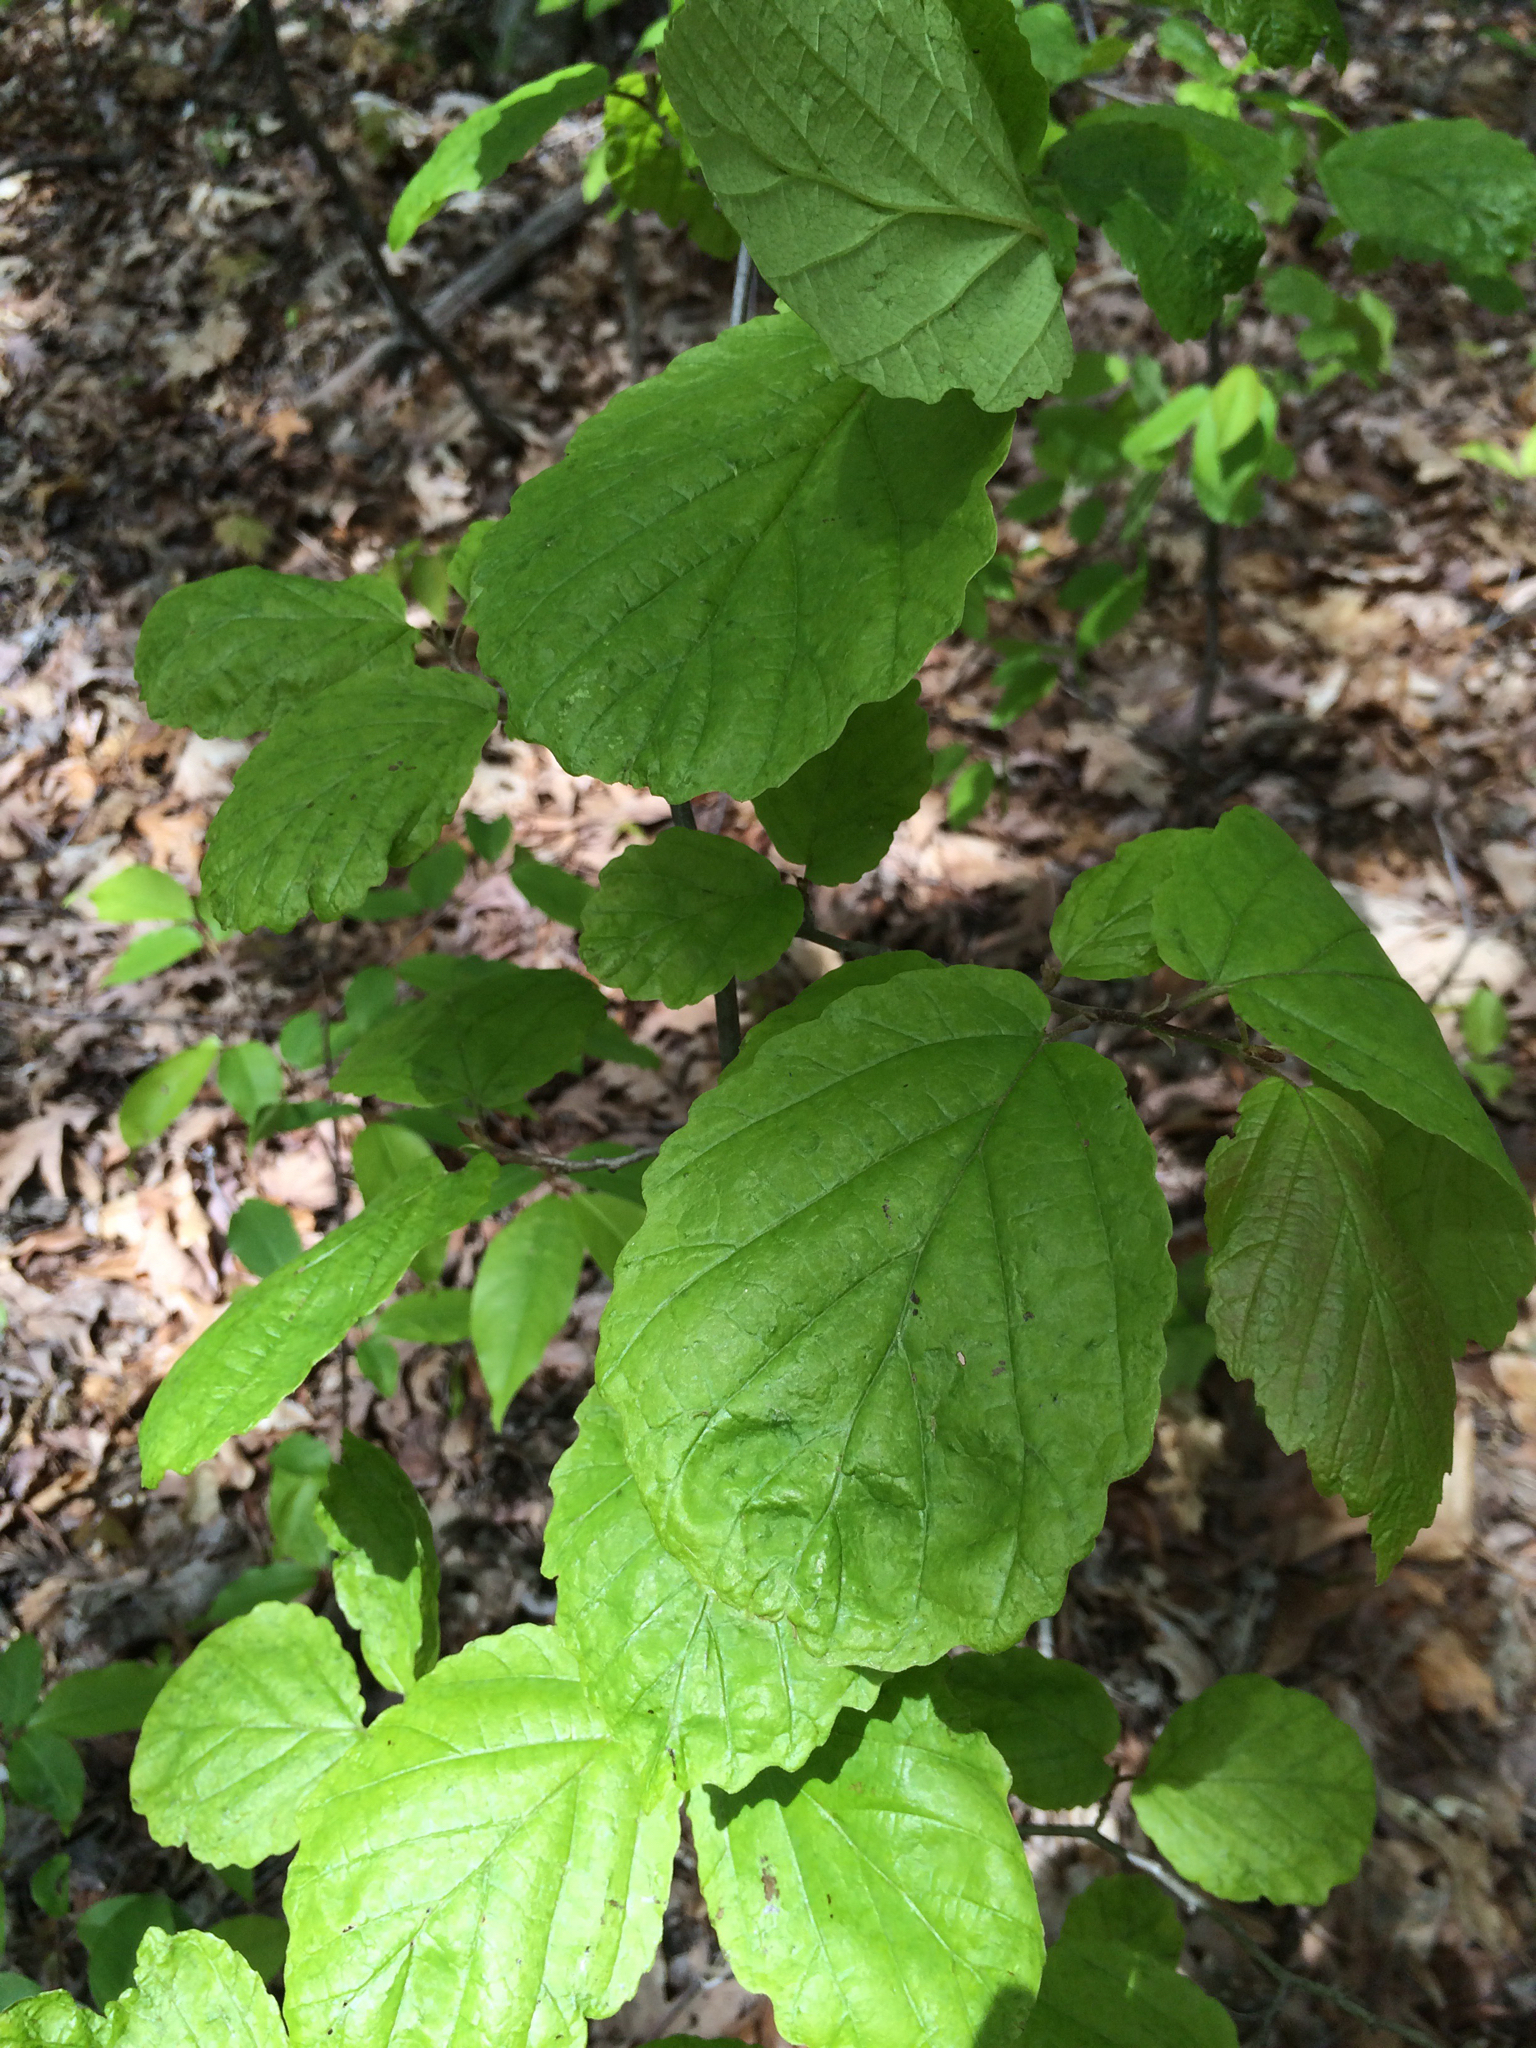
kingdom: Plantae
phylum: Tracheophyta
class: Magnoliopsida
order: Saxifragales
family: Hamamelidaceae
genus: Hamamelis
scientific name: Hamamelis virginiana
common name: Witch-hazel
